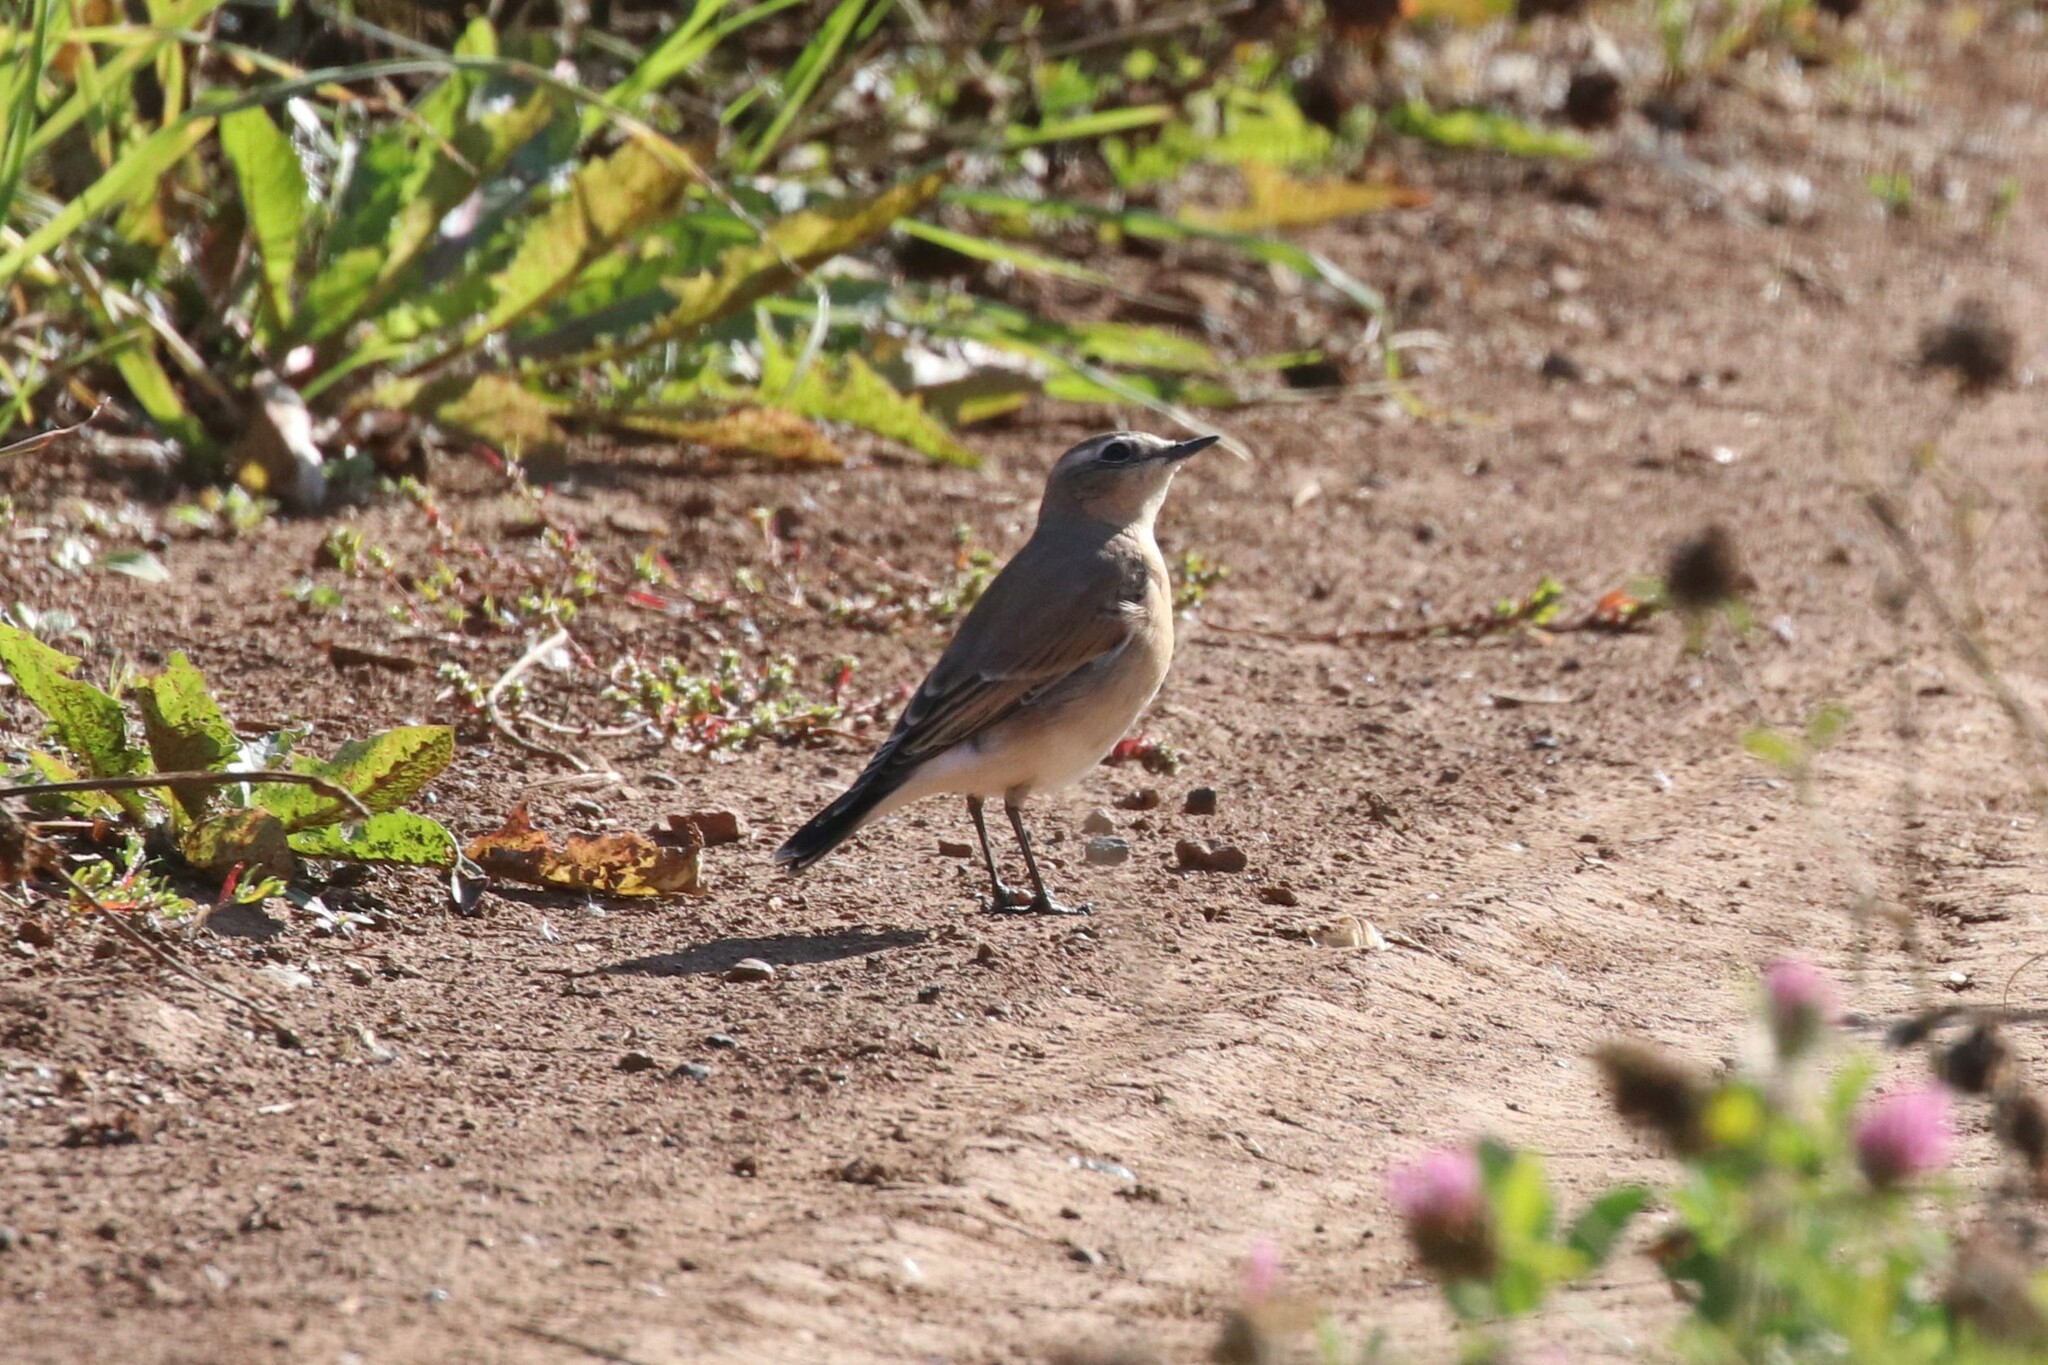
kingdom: Animalia
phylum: Chordata
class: Aves
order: Passeriformes
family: Muscicapidae
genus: Oenanthe
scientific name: Oenanthe oenanthe
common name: Northern wheatear
